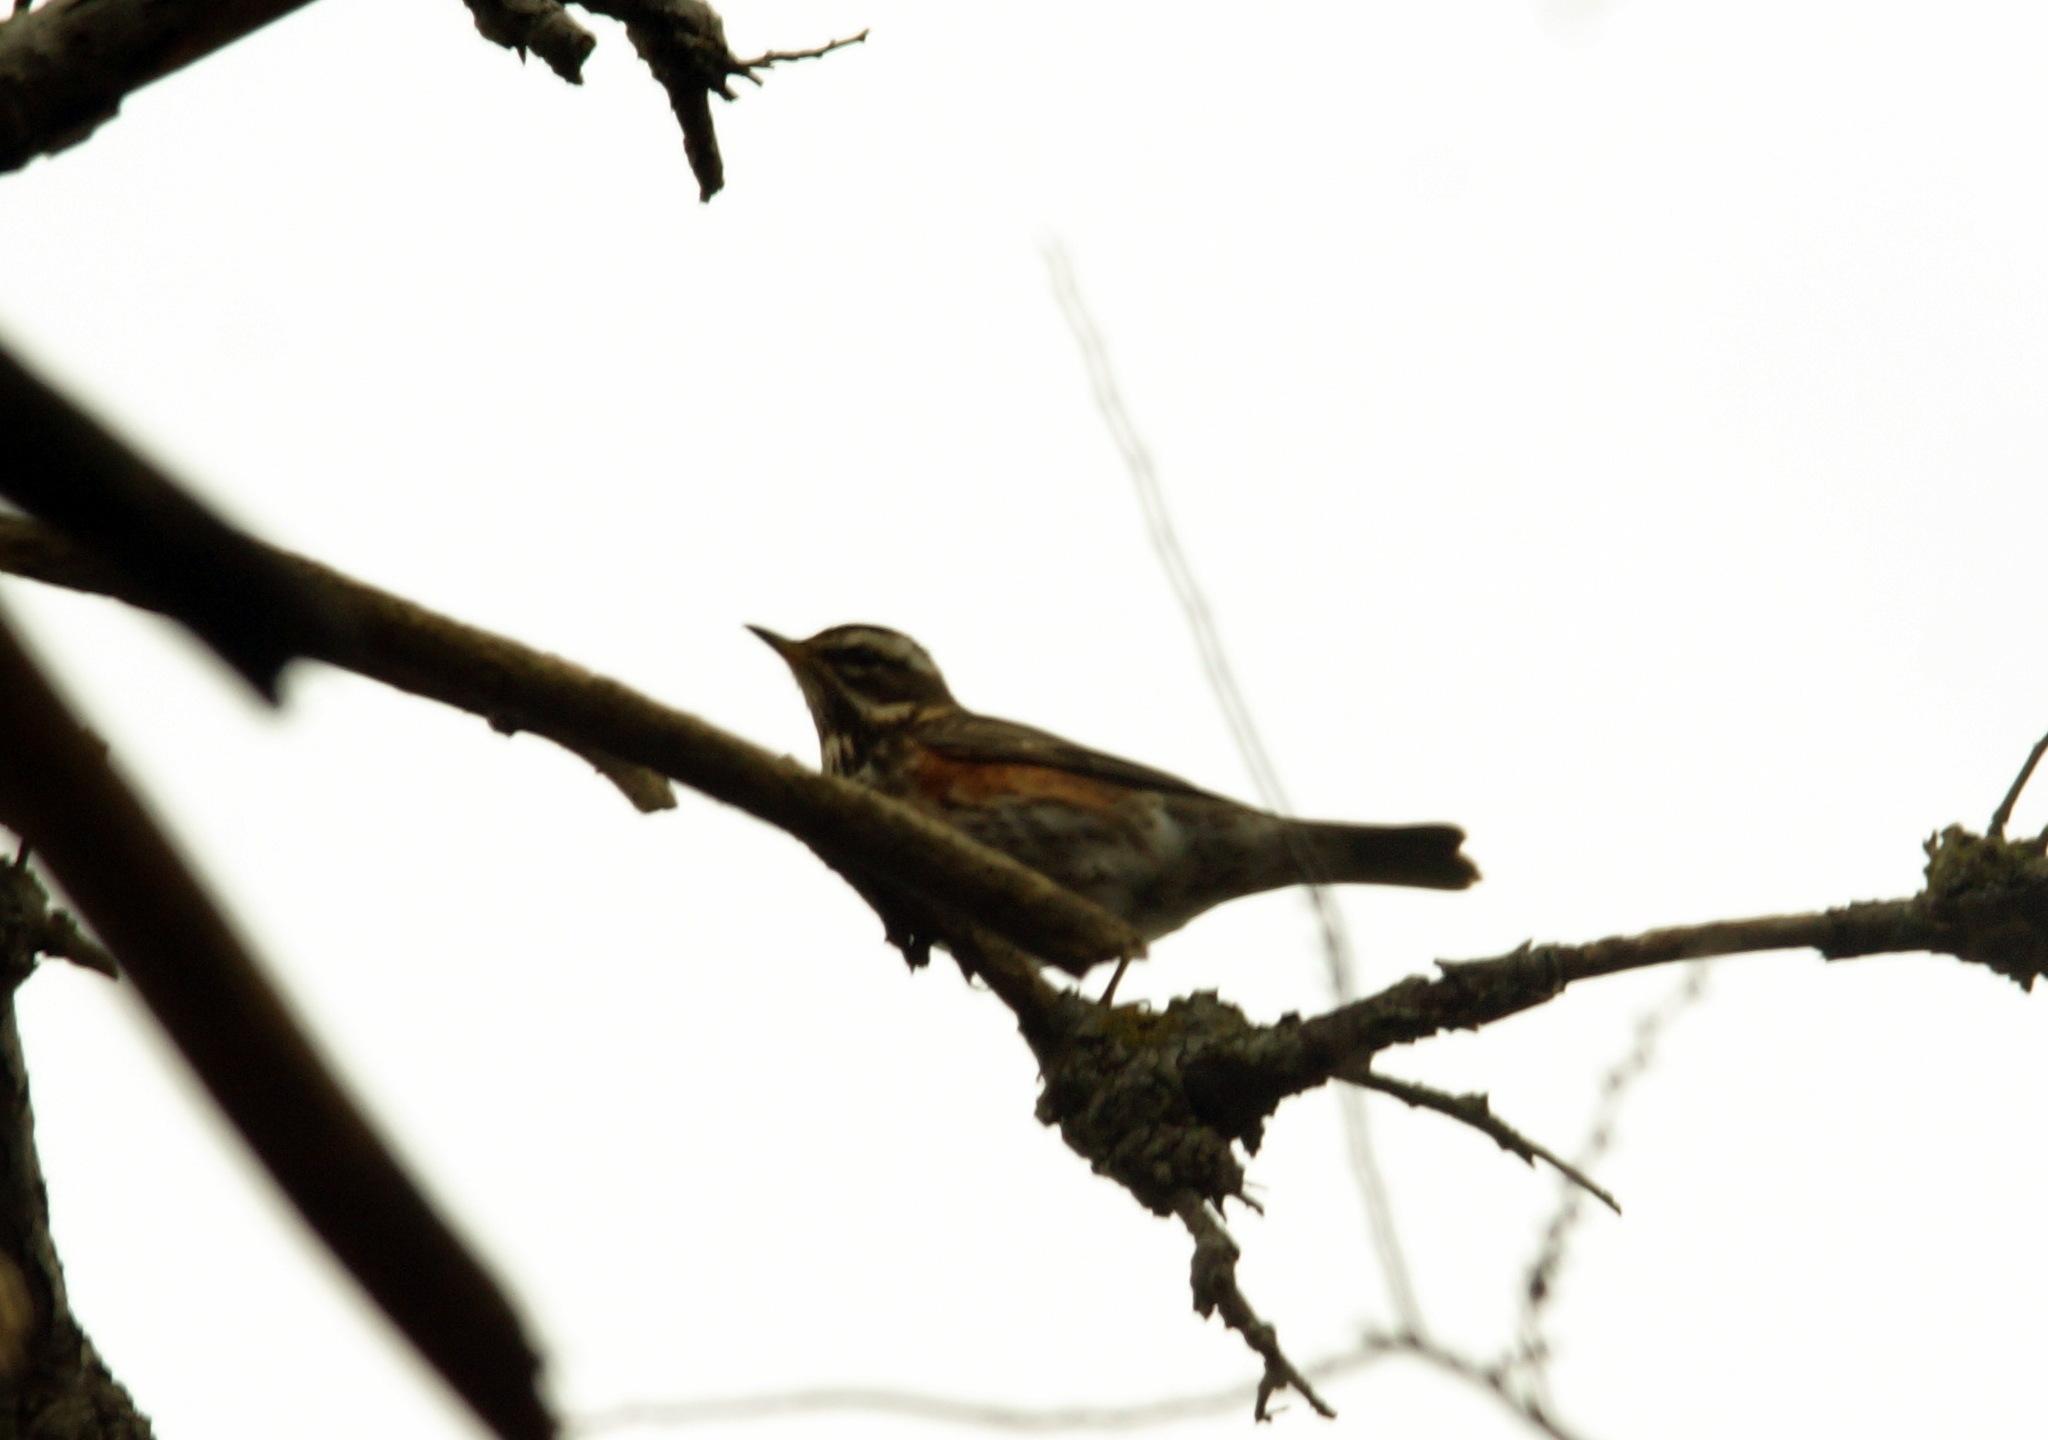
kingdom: Animalia
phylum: Chordata
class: Aves
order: Passeriformes
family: Turdidae
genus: Turdus
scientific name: Turdus iliacus
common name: Redwing
